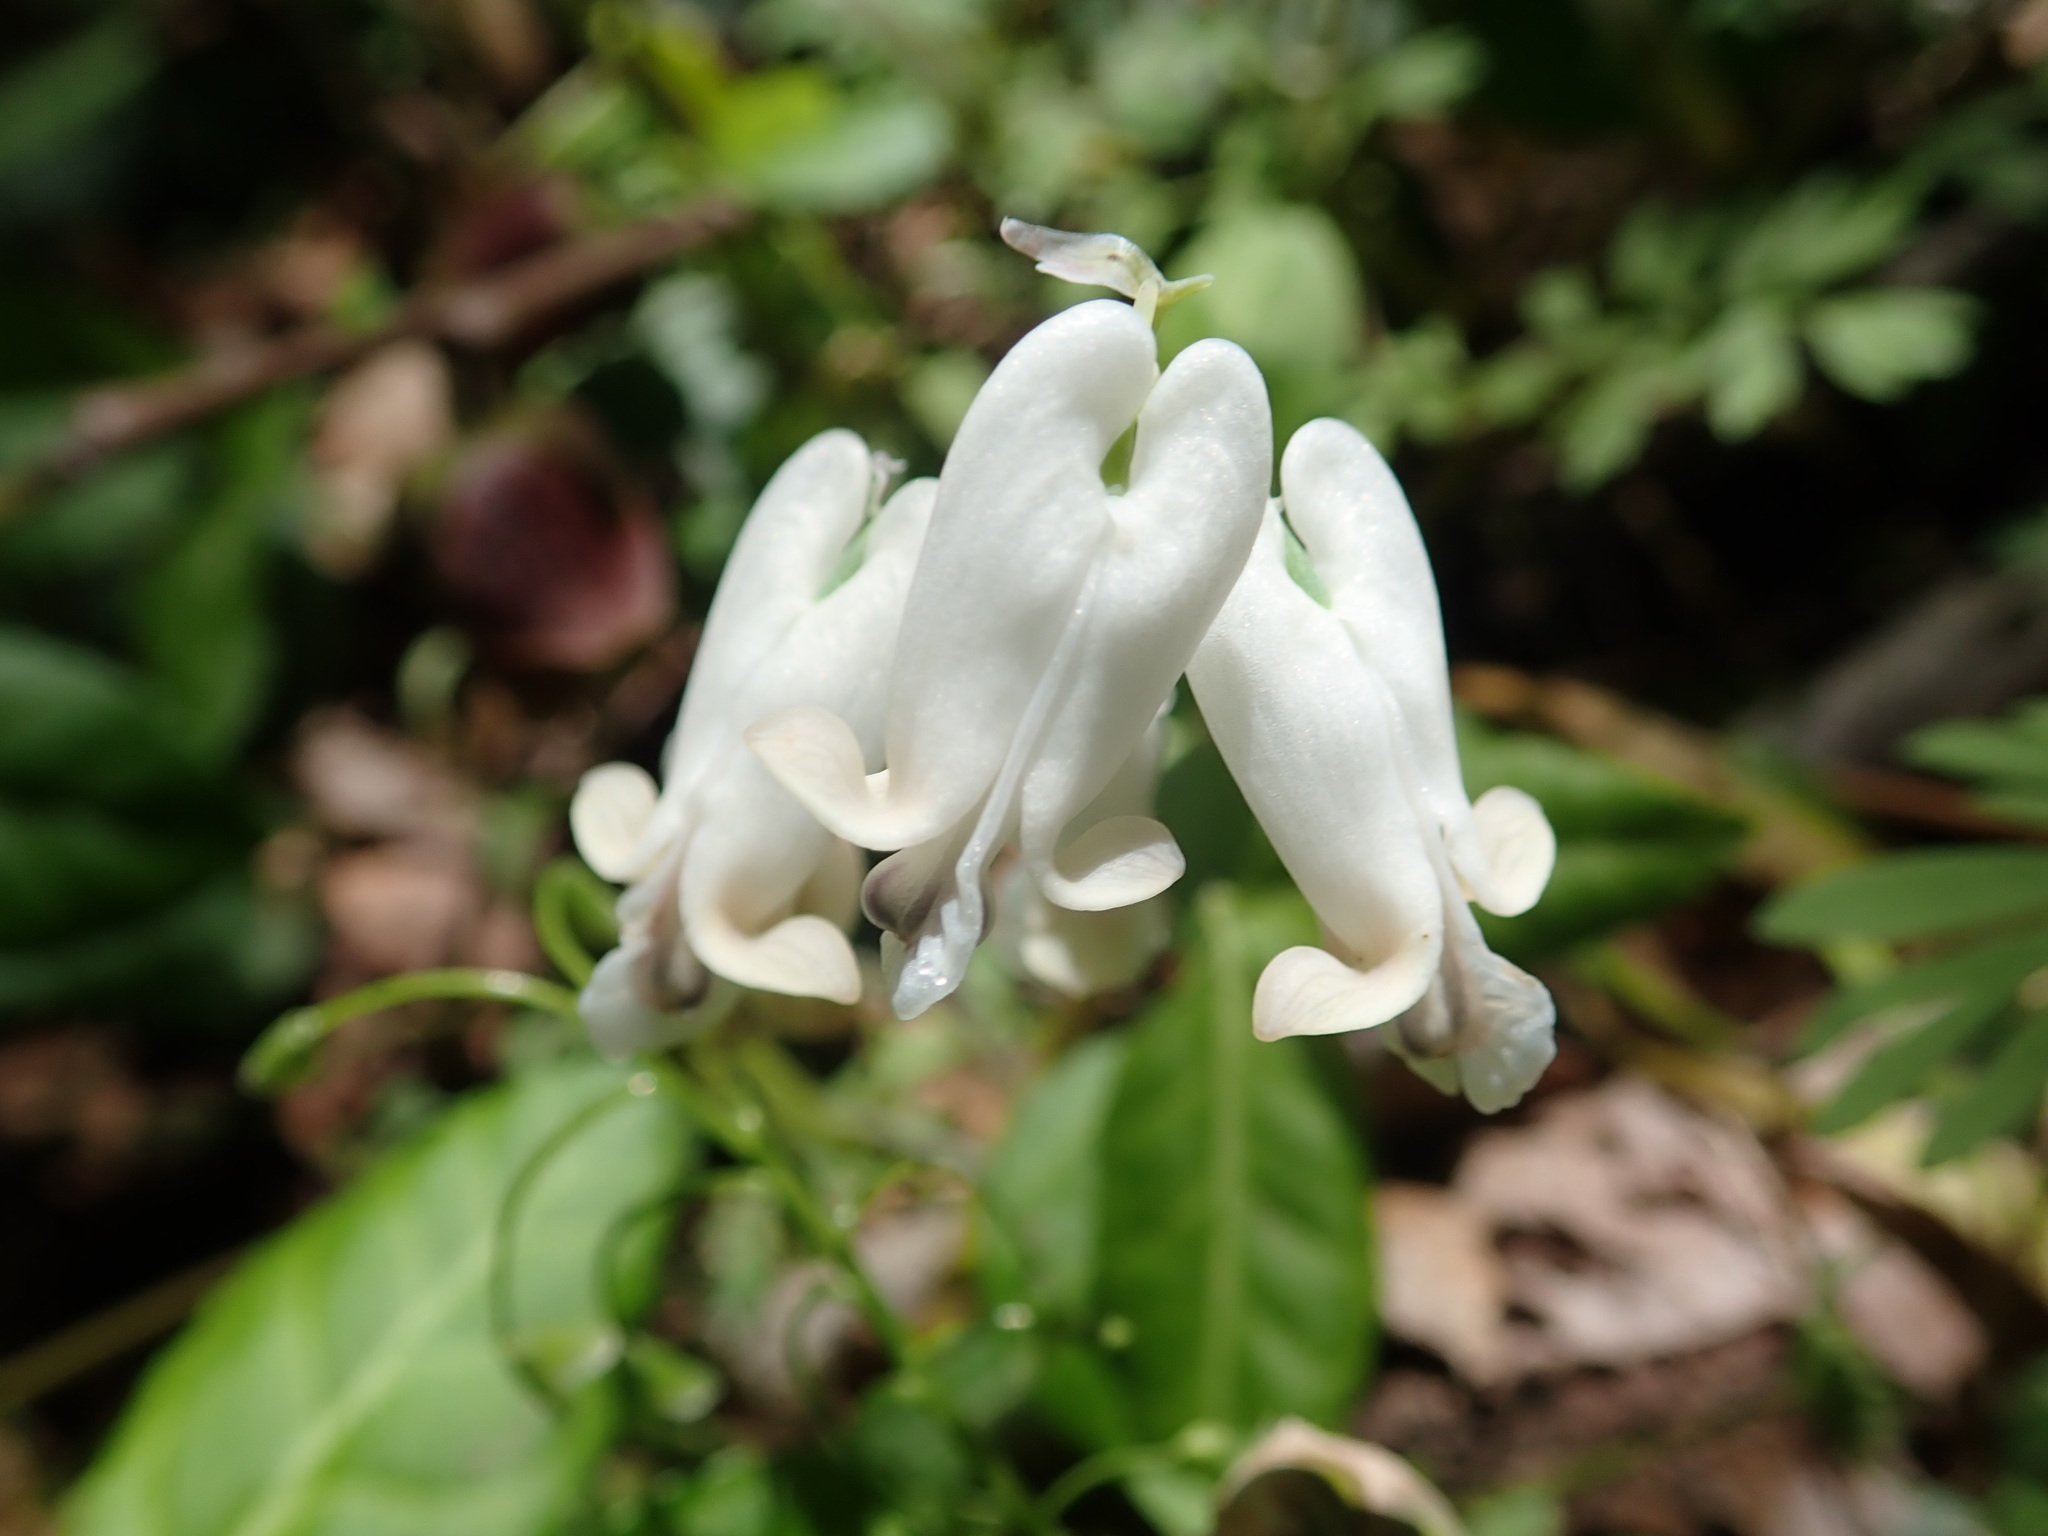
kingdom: Plantae
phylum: Tracheophyta
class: Magnoliopsida
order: Ranunculales
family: Papaveraceae
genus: Dicentra
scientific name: Dicentra canadensis
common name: Squirrel-corn
